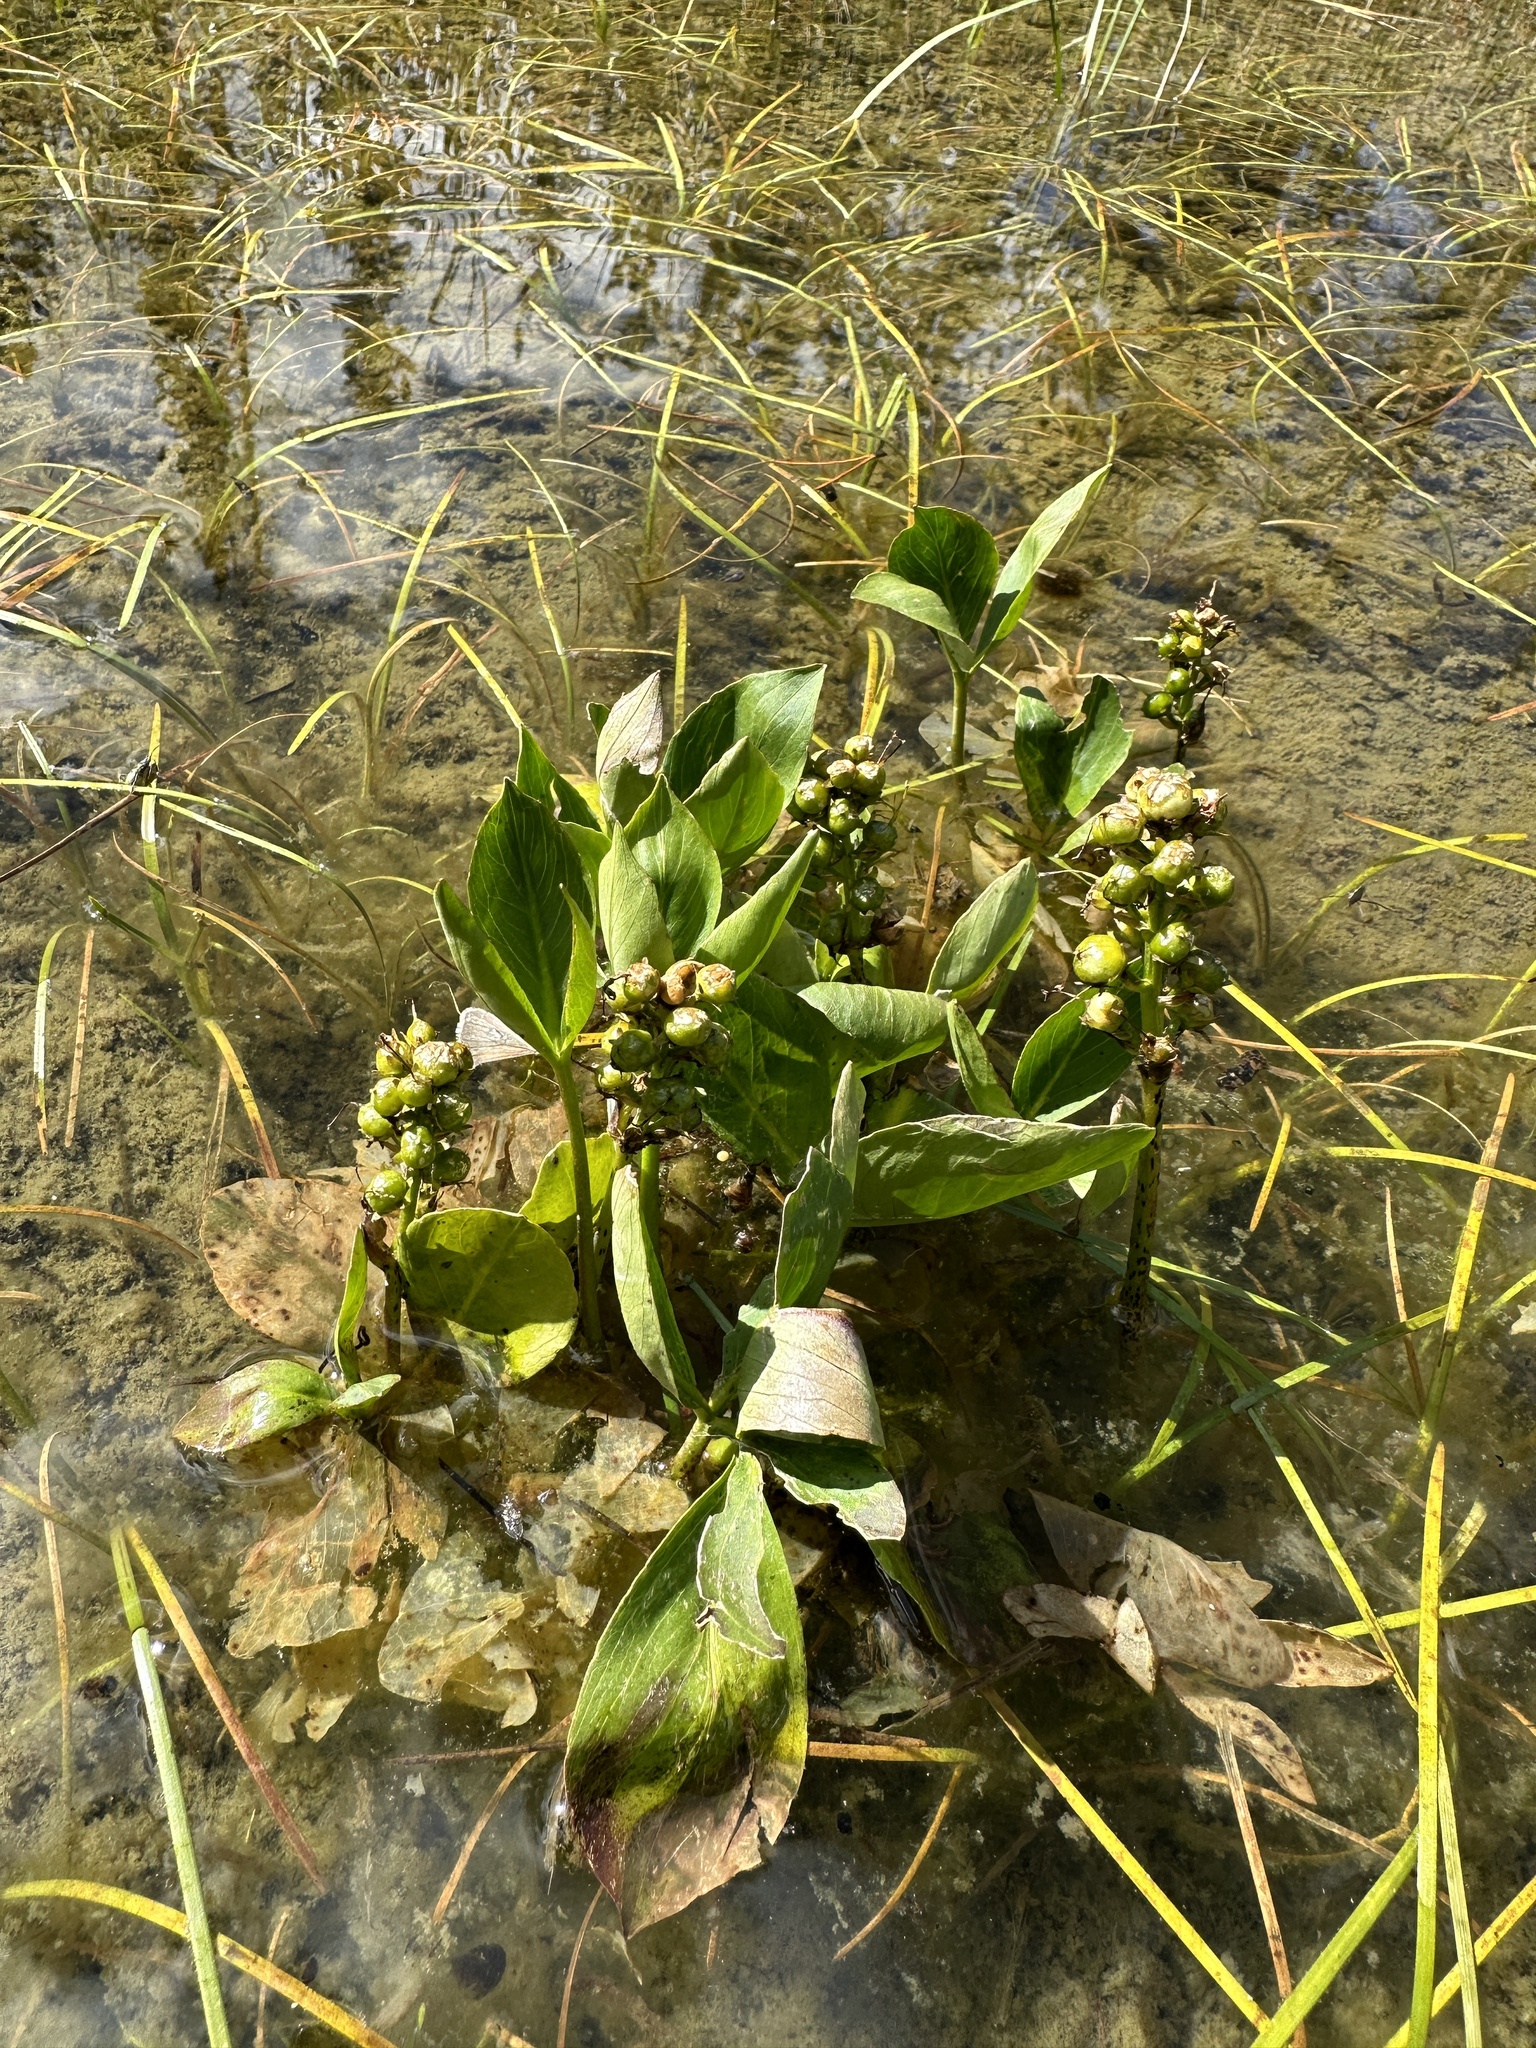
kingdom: Plantae
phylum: Tracheophyta
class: Magnoliopsida
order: Asterales
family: Menyanthaceae
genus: Menyanthes
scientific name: Menyanthes trifoliata
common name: Bogbean
